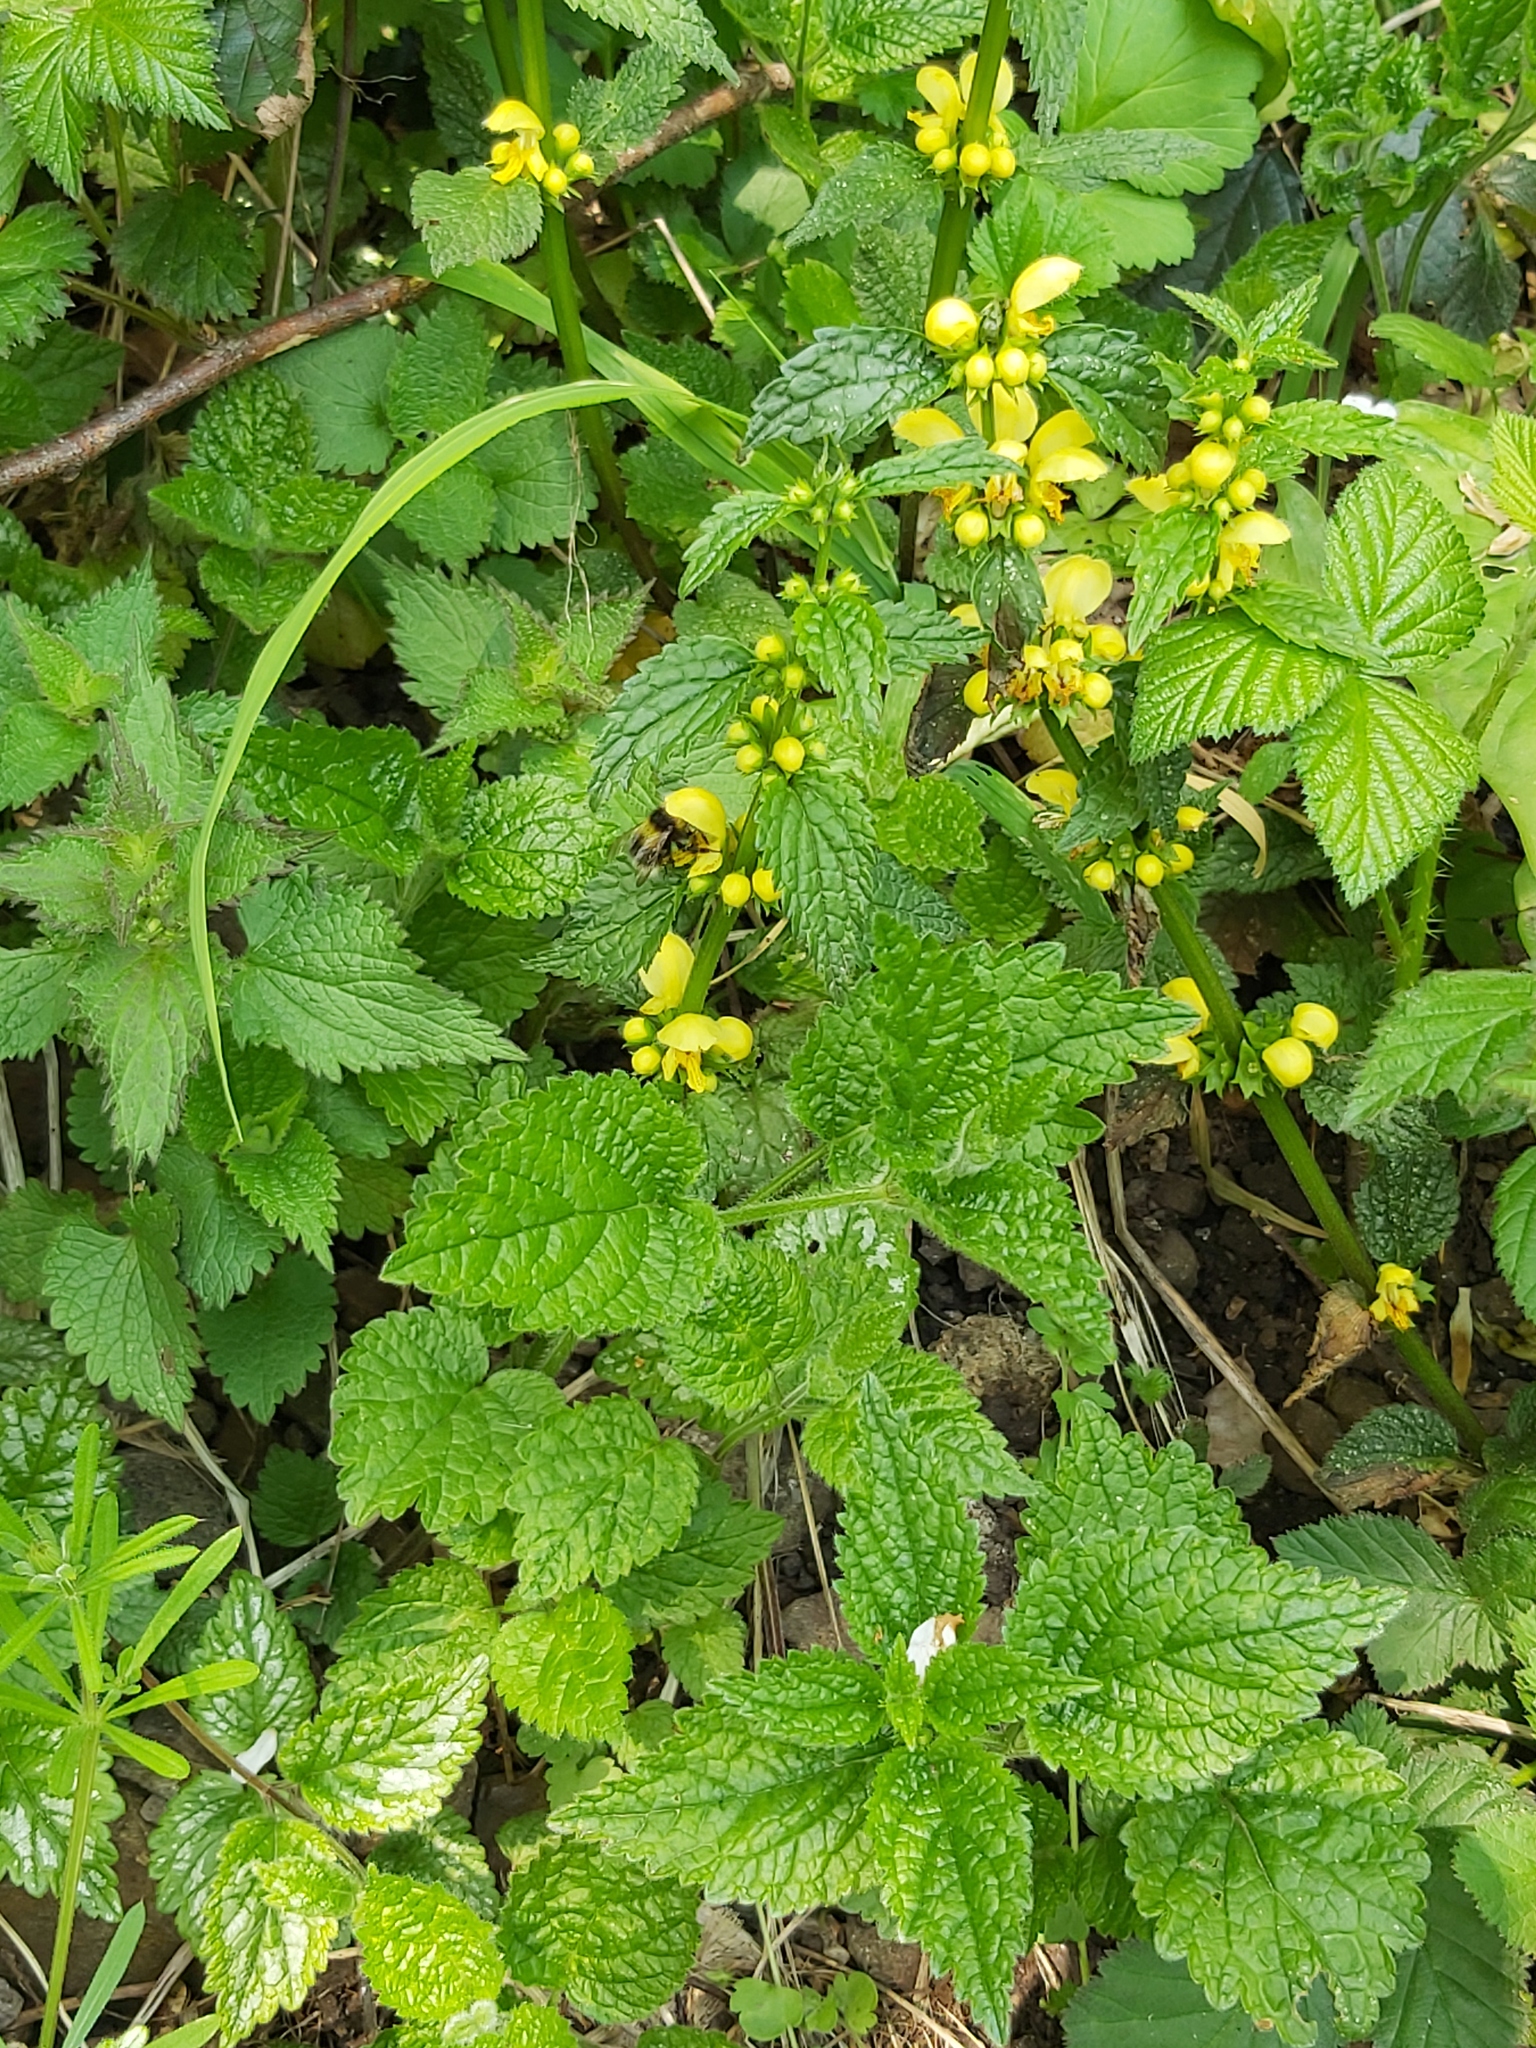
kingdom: Plantae
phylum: Tracheophyta
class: Magnoliopsida
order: Lamiales
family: Lamiaceae
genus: Lamium
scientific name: Lamium galeobdolon
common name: Yellow archangel
